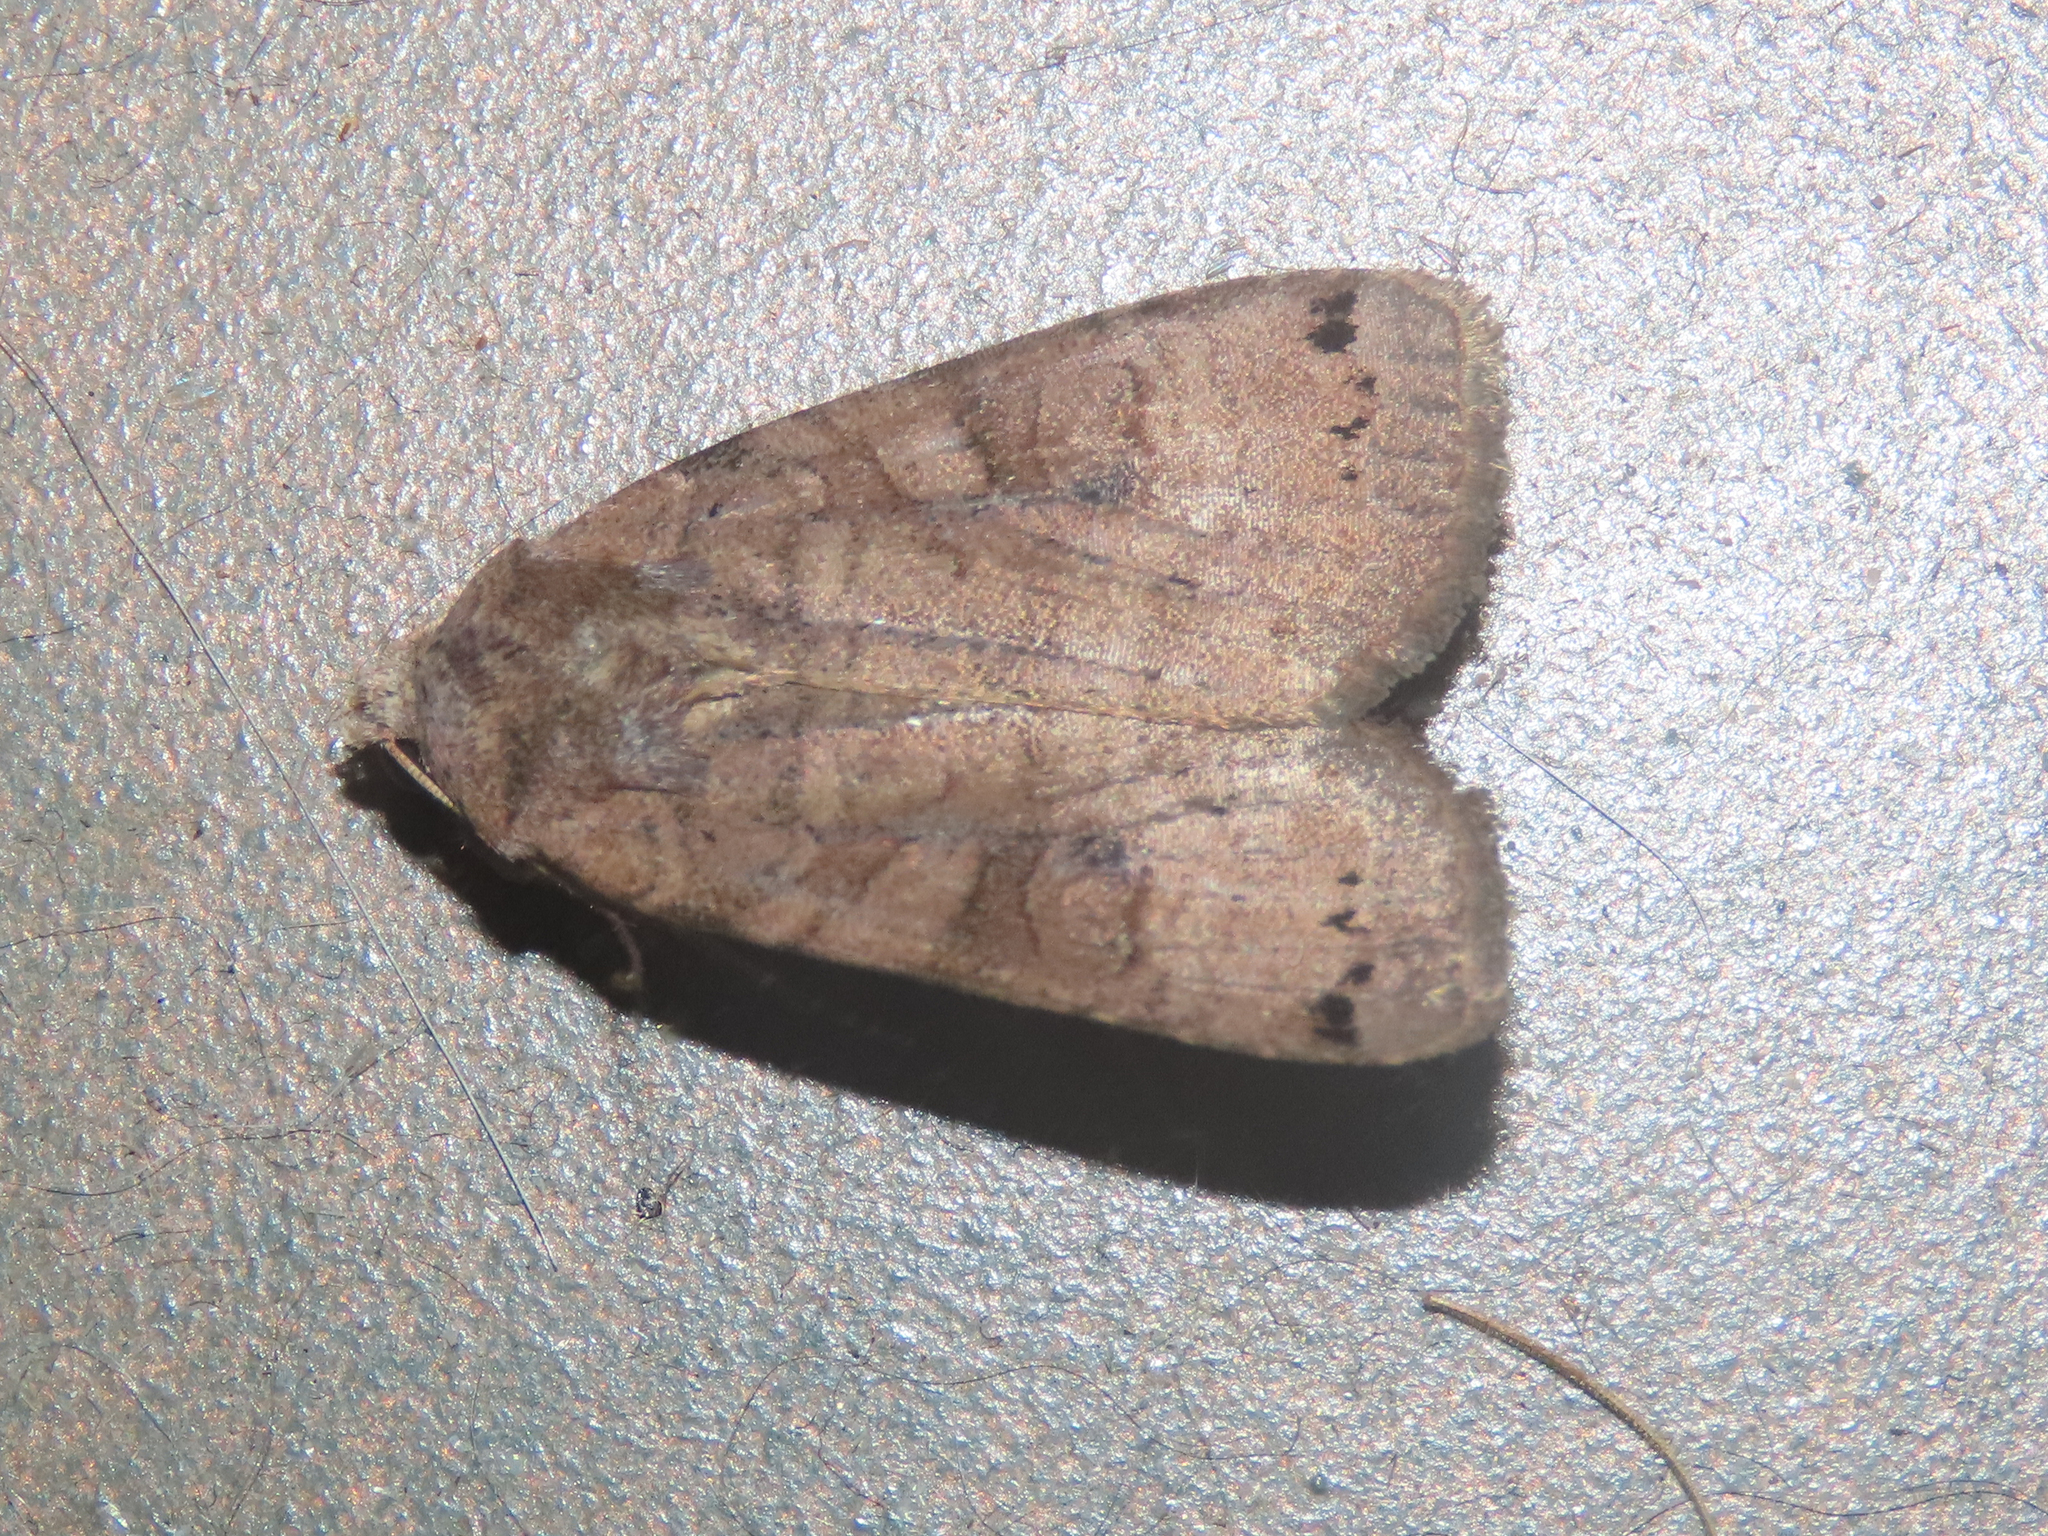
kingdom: Animalia
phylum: Arthropoda
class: Insecta
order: Lepidoptera
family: Noctuidae
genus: Xestia
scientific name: Xestia smithii
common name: Smith's dart
